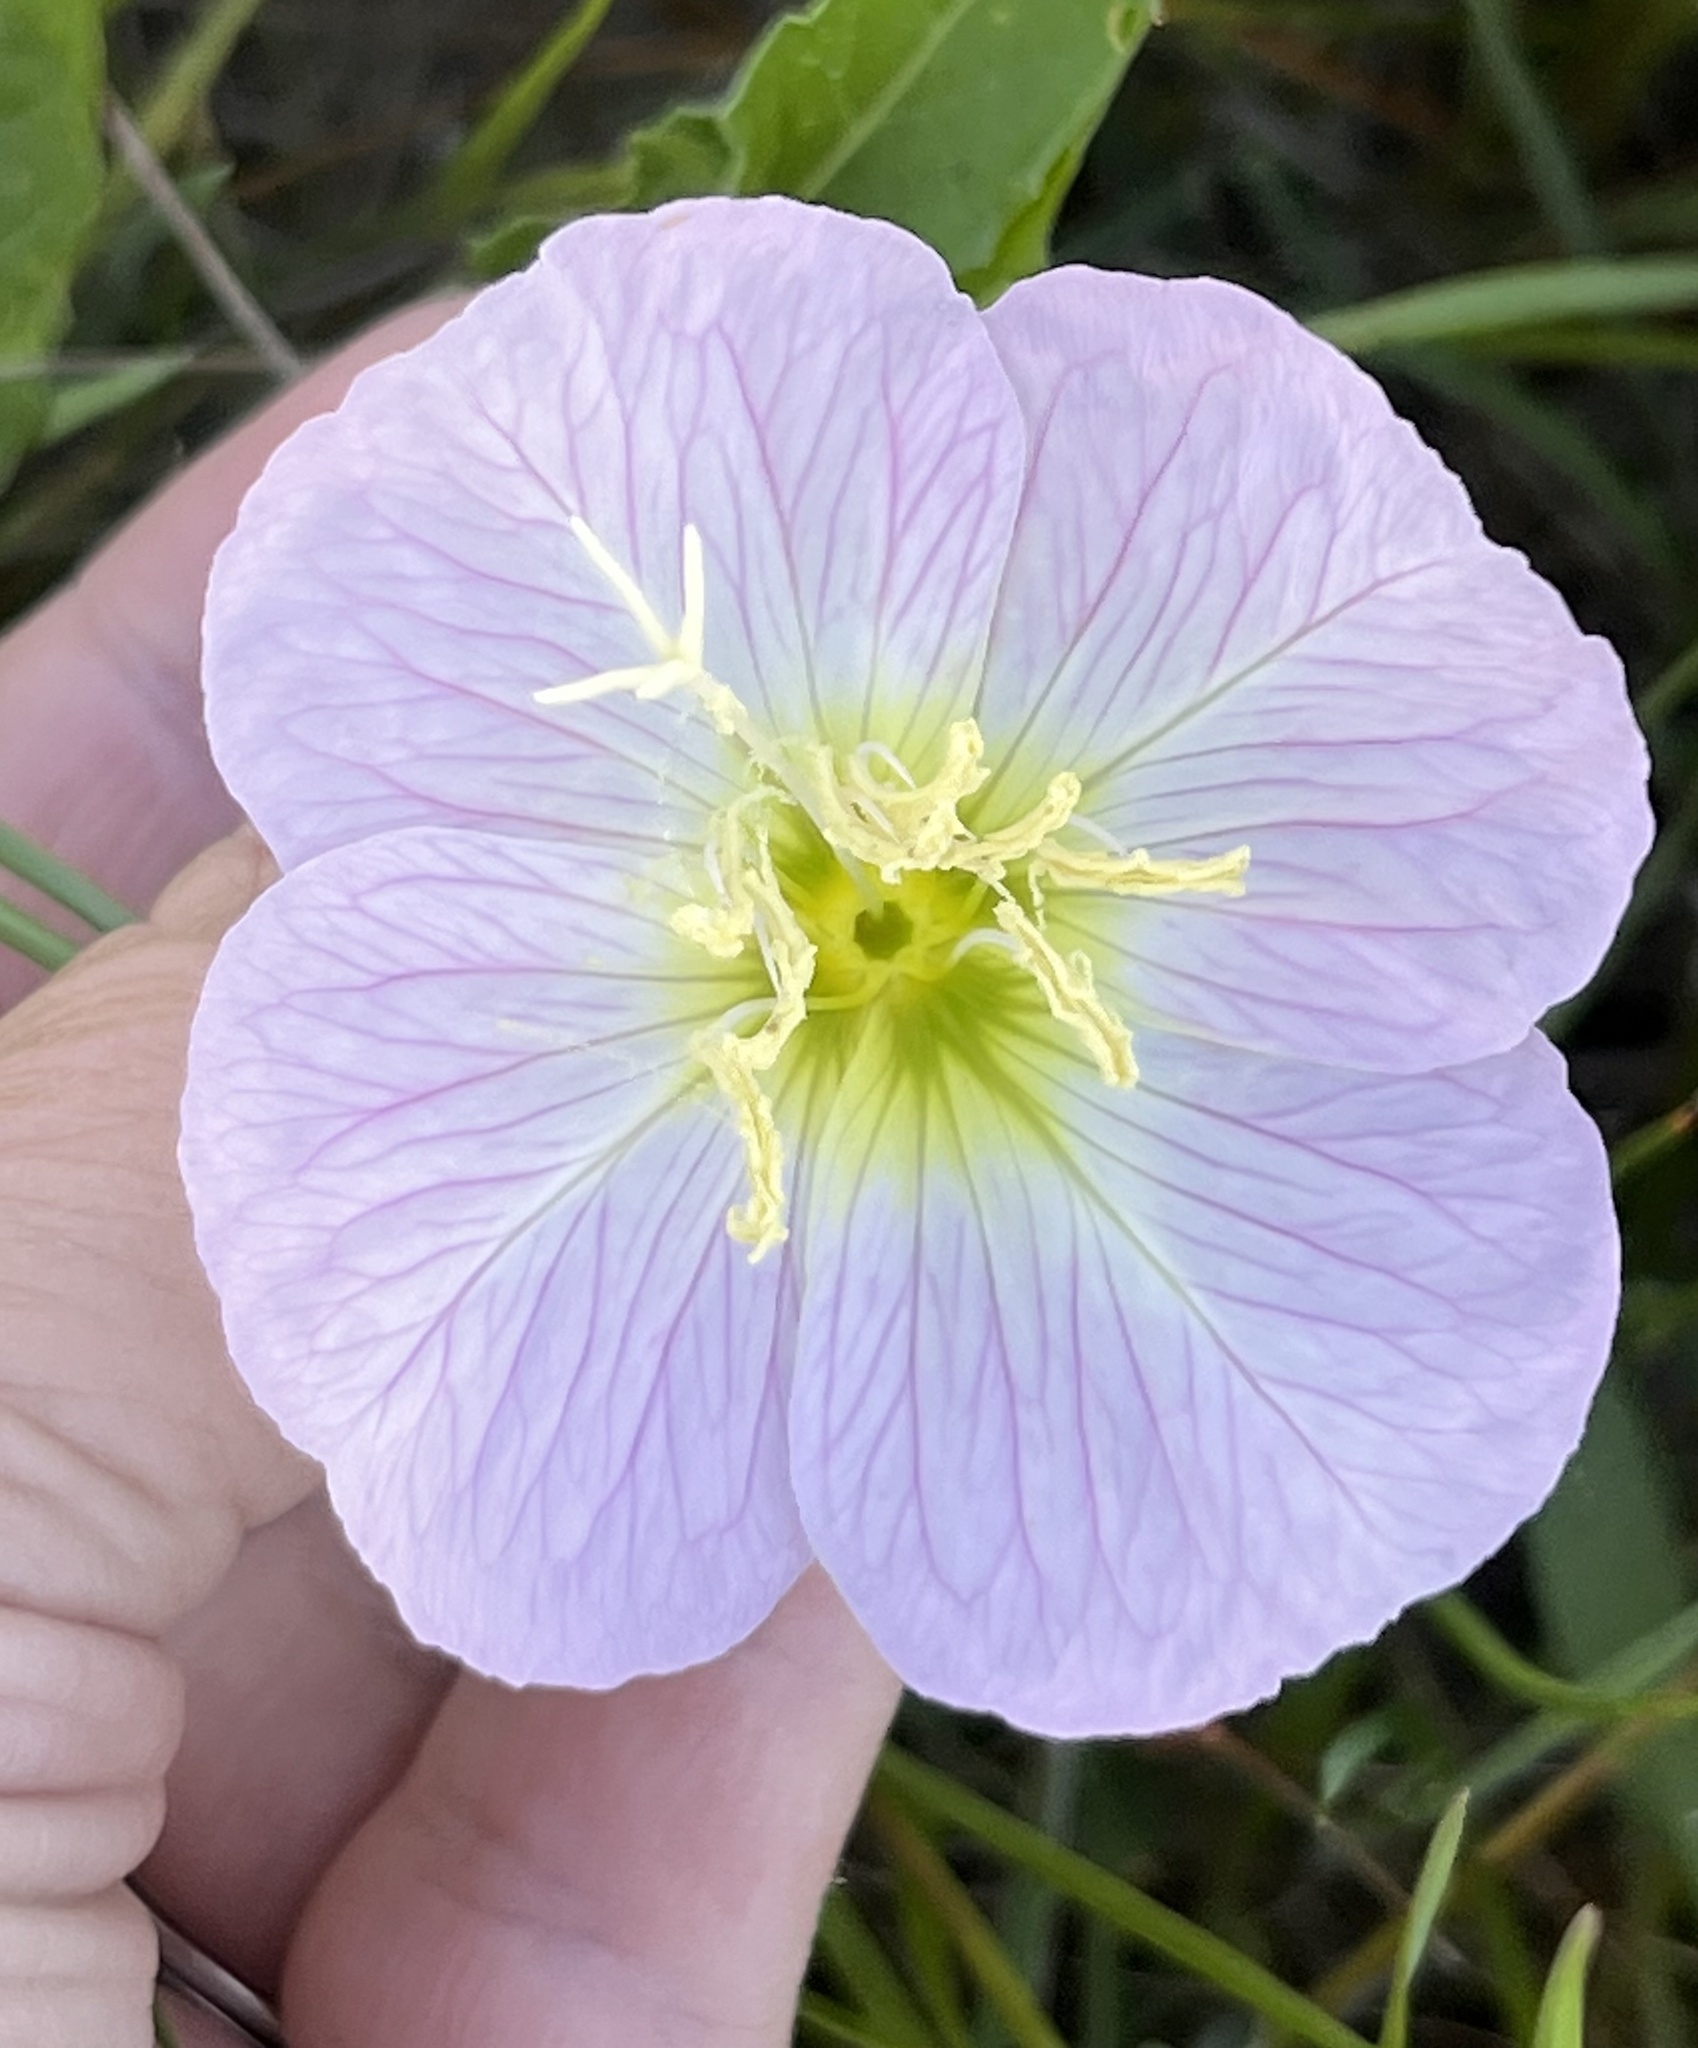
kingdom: Plantae
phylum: Tracheophyta
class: Magnoliopsida
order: Myrtales
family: Onagraceae
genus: Oenothera
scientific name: Oenothera speciosa
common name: White evening-primrose
